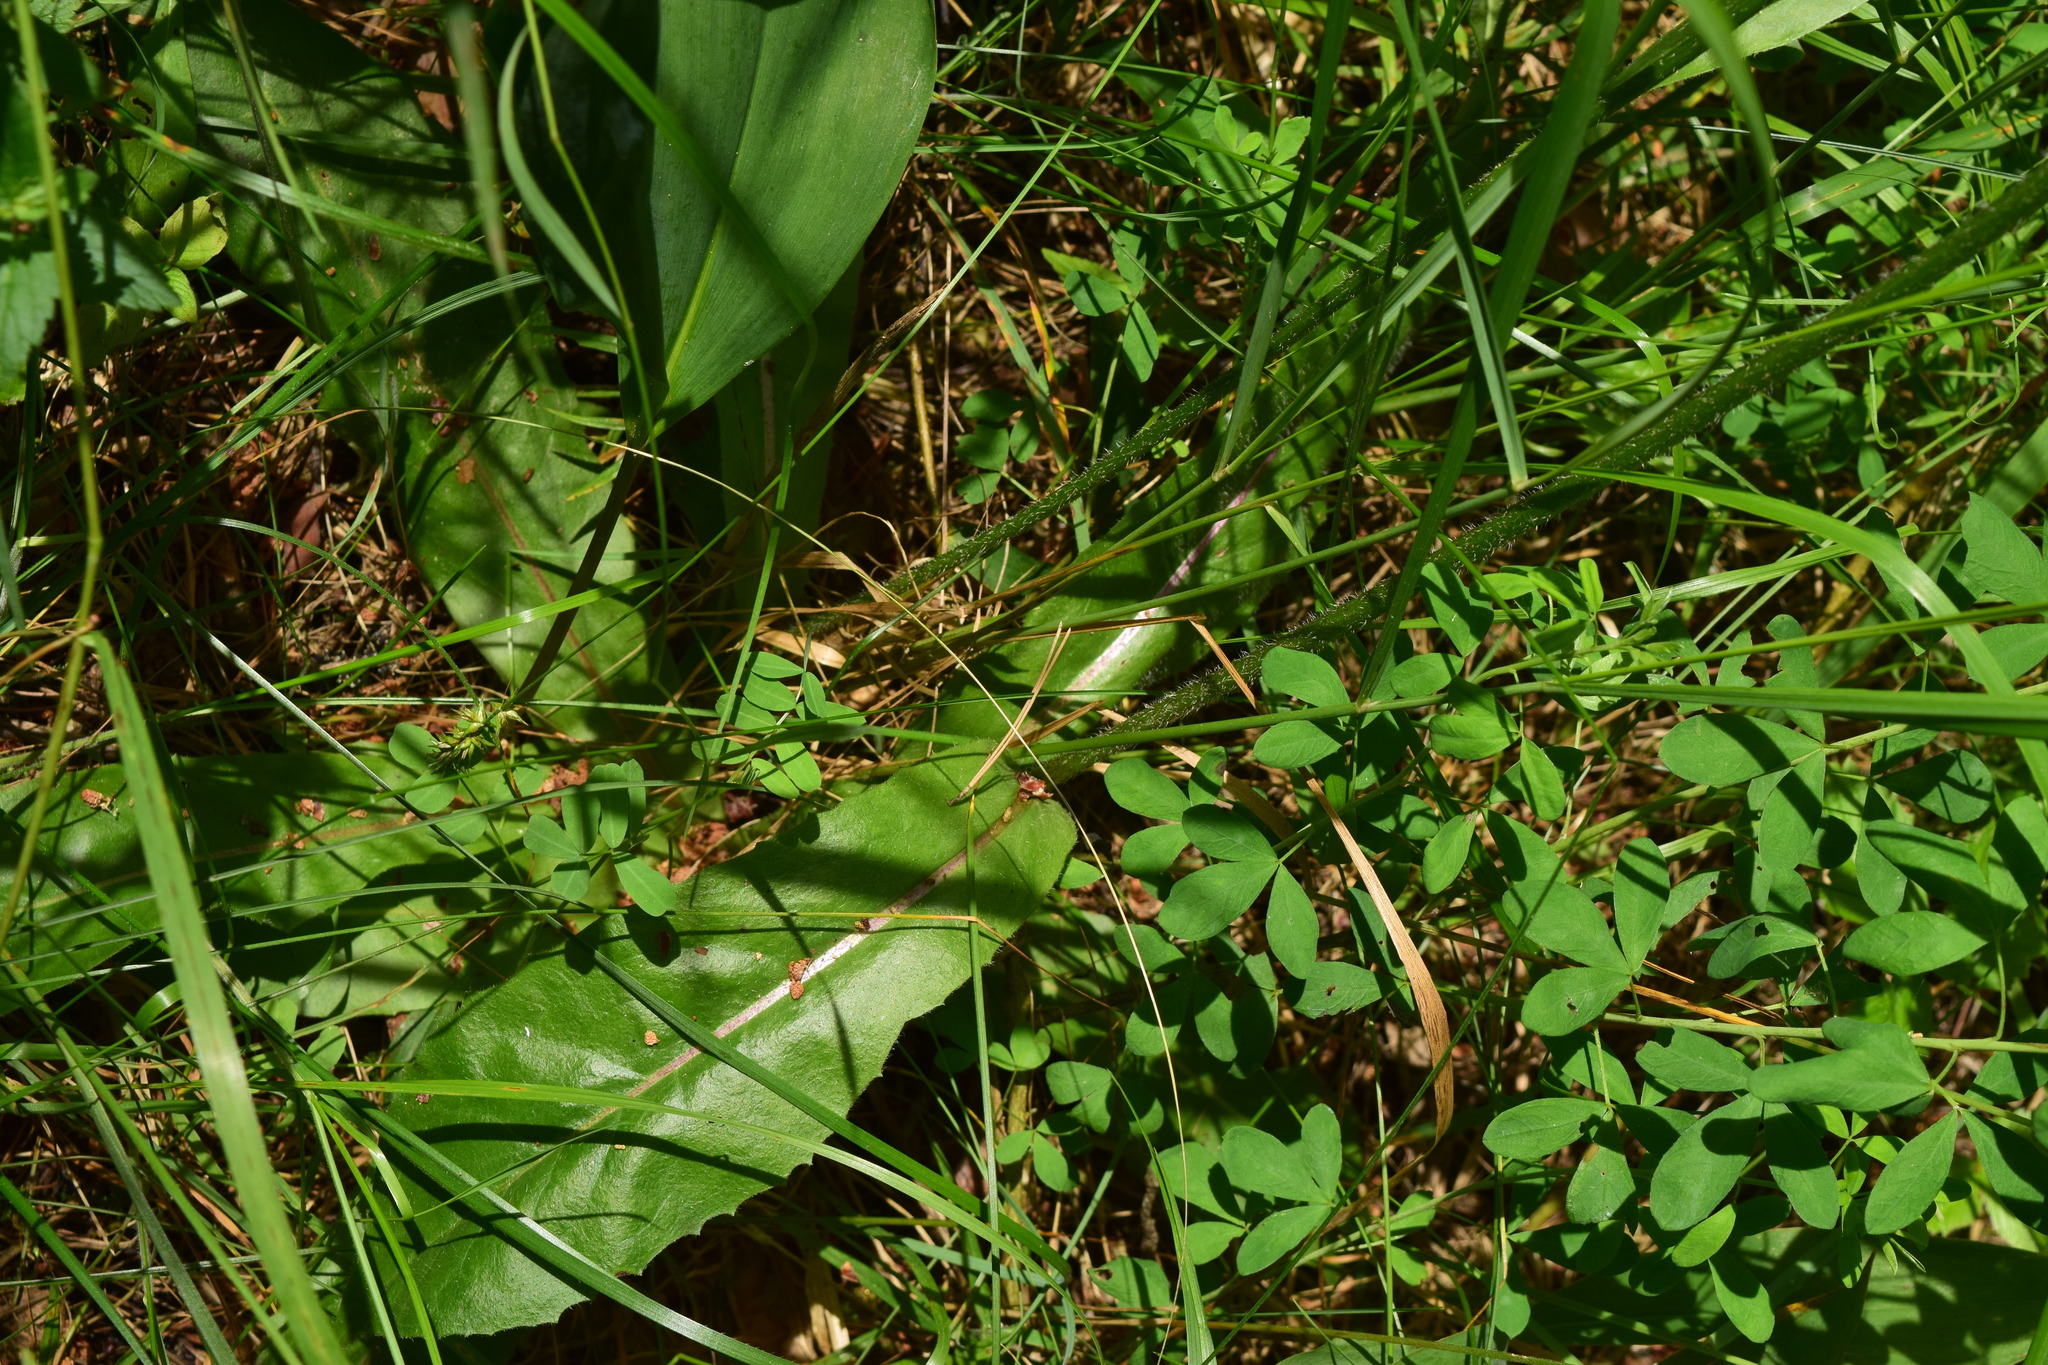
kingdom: Plantae
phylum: Tracheophyta
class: Magnoliopsida
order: Asterales
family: Asteraceae
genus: Trommsdorffia
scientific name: Trommsdorffia maculata
